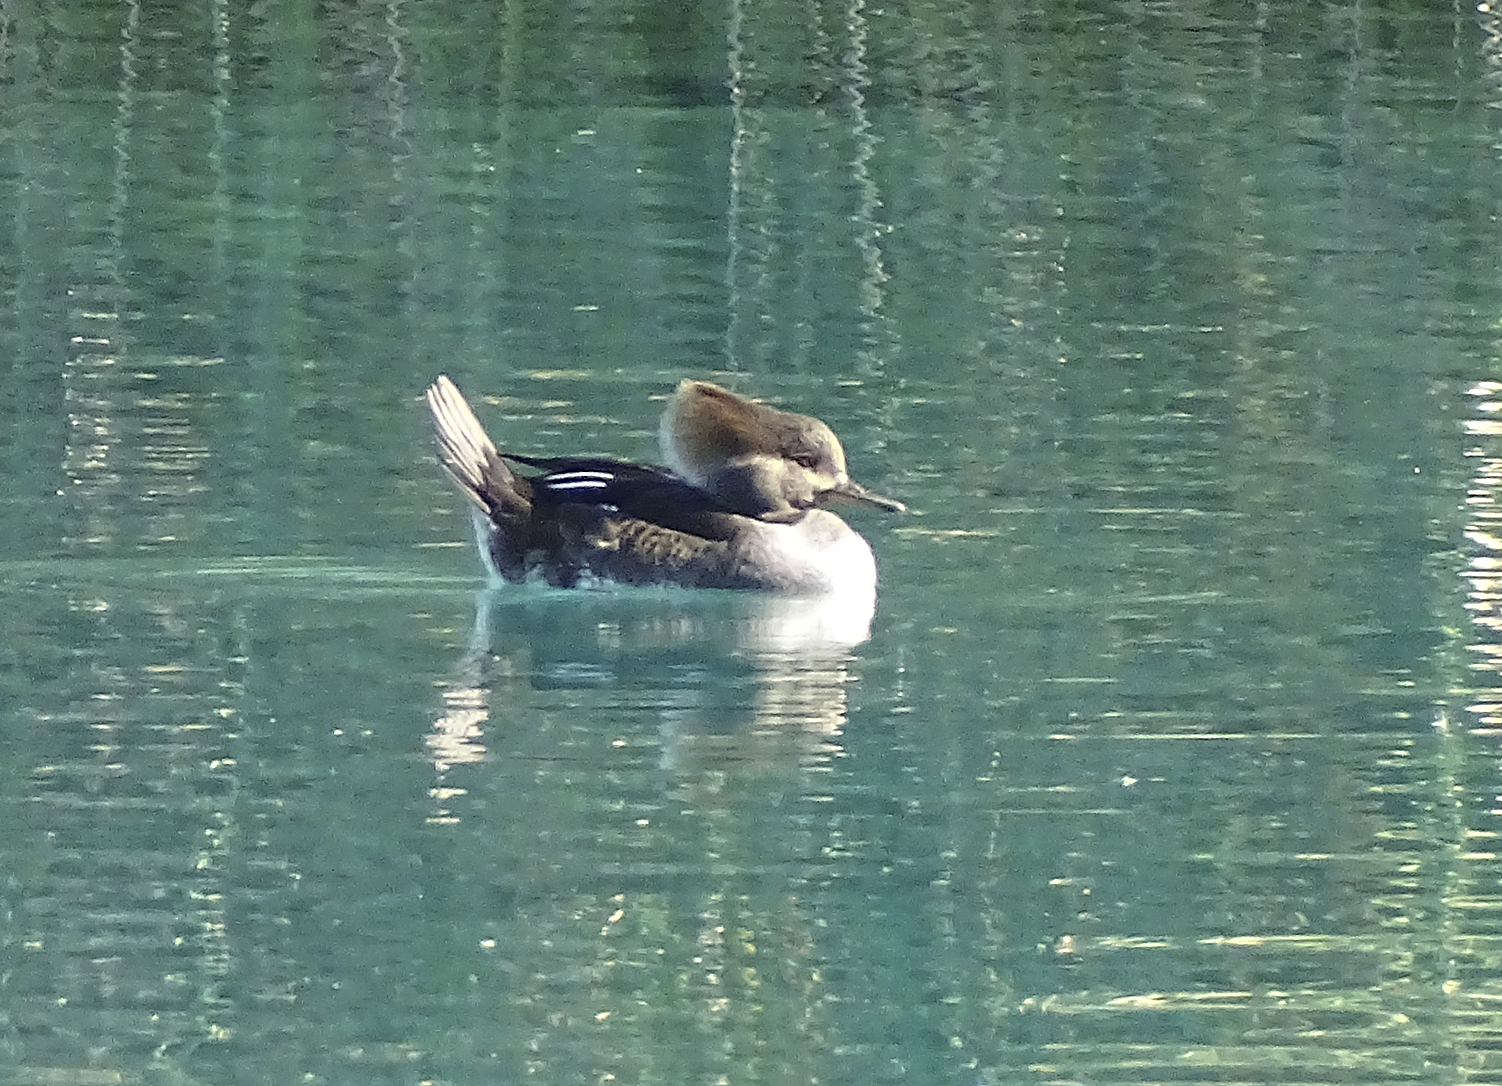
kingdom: Animalia
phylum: Chordata
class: Aves
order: Anseriformes
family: Anatidae
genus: Lophodytes
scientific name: Lophodytes cucullatus
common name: Hooded merganser
